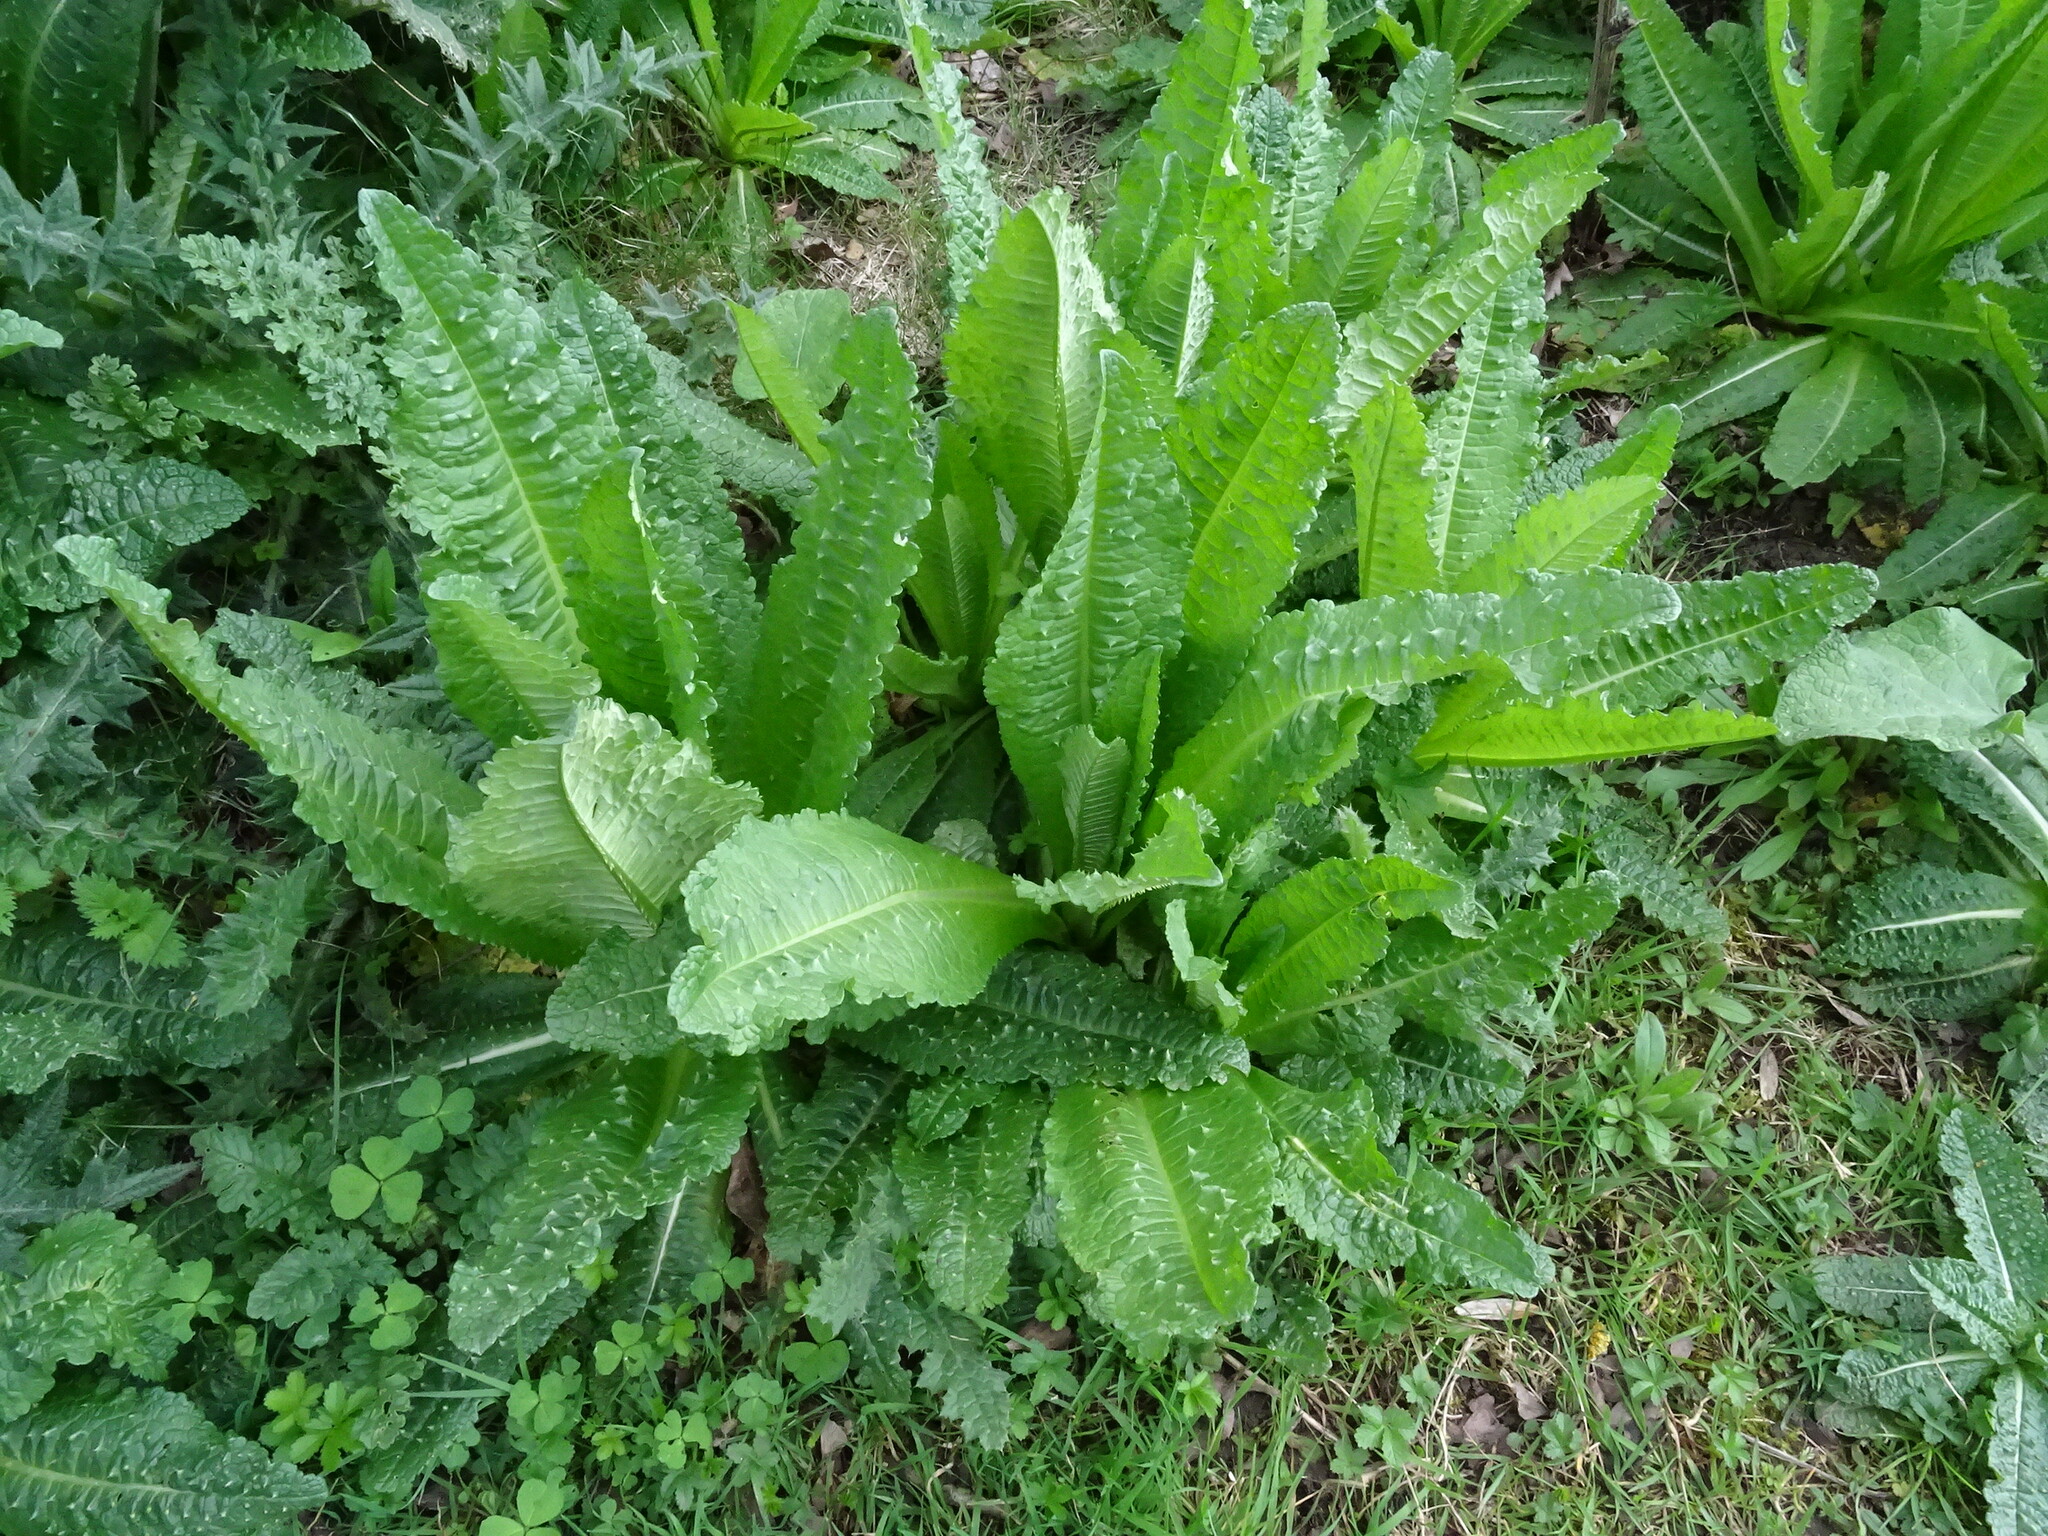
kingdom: Plantae
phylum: Tracheophyta
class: Magnoliopsida
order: Dipsacales
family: Caprifoliaceae
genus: Dipsacus
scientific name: Dipsacus fullonum
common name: Teasel
